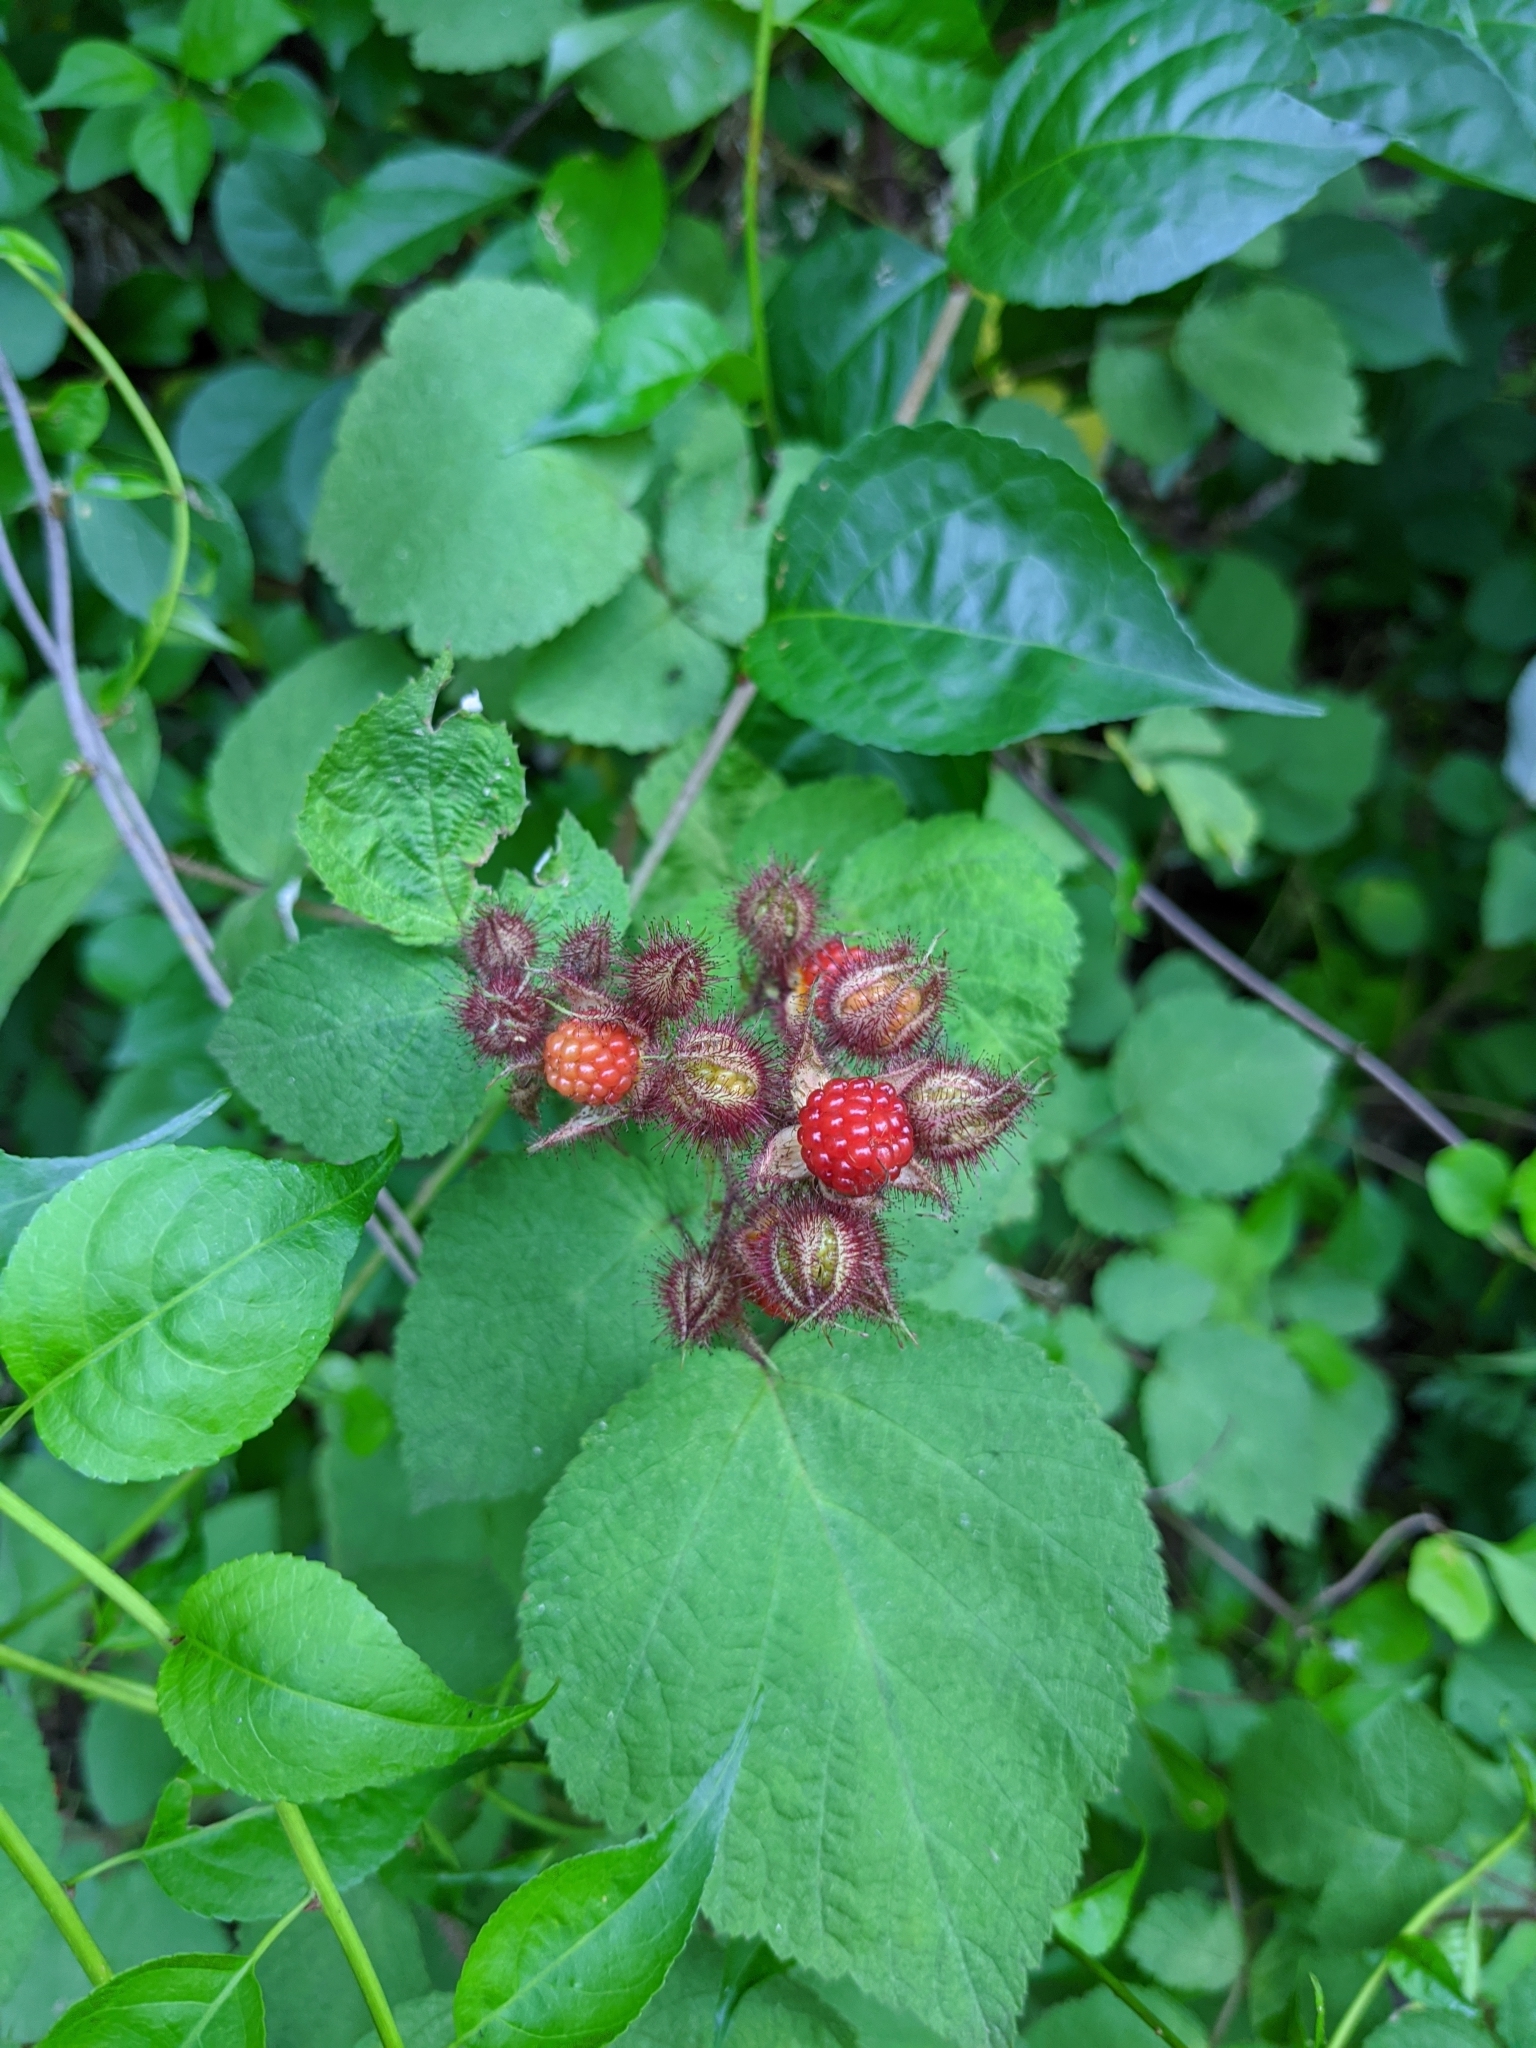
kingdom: Plantae
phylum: Tracheophyta
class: Magnoliopsida
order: Rosales
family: Rosaceae
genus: Rubus
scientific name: Rubus phoenicolasius
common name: Japanese wineberry
